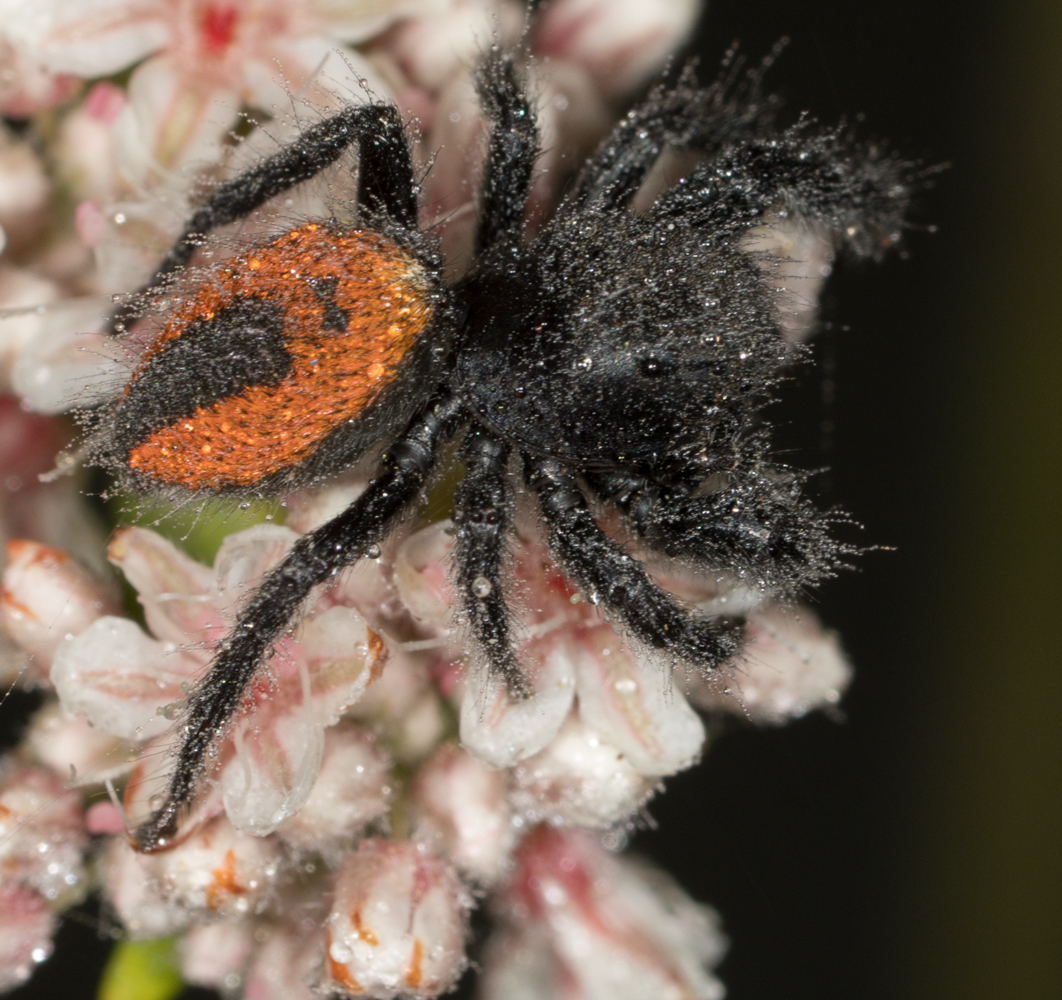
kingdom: Animalia
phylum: Arthropoda
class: Arachnida
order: Araneae
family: Salticidae
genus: Phidippus
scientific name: Phidippus johnsoni
